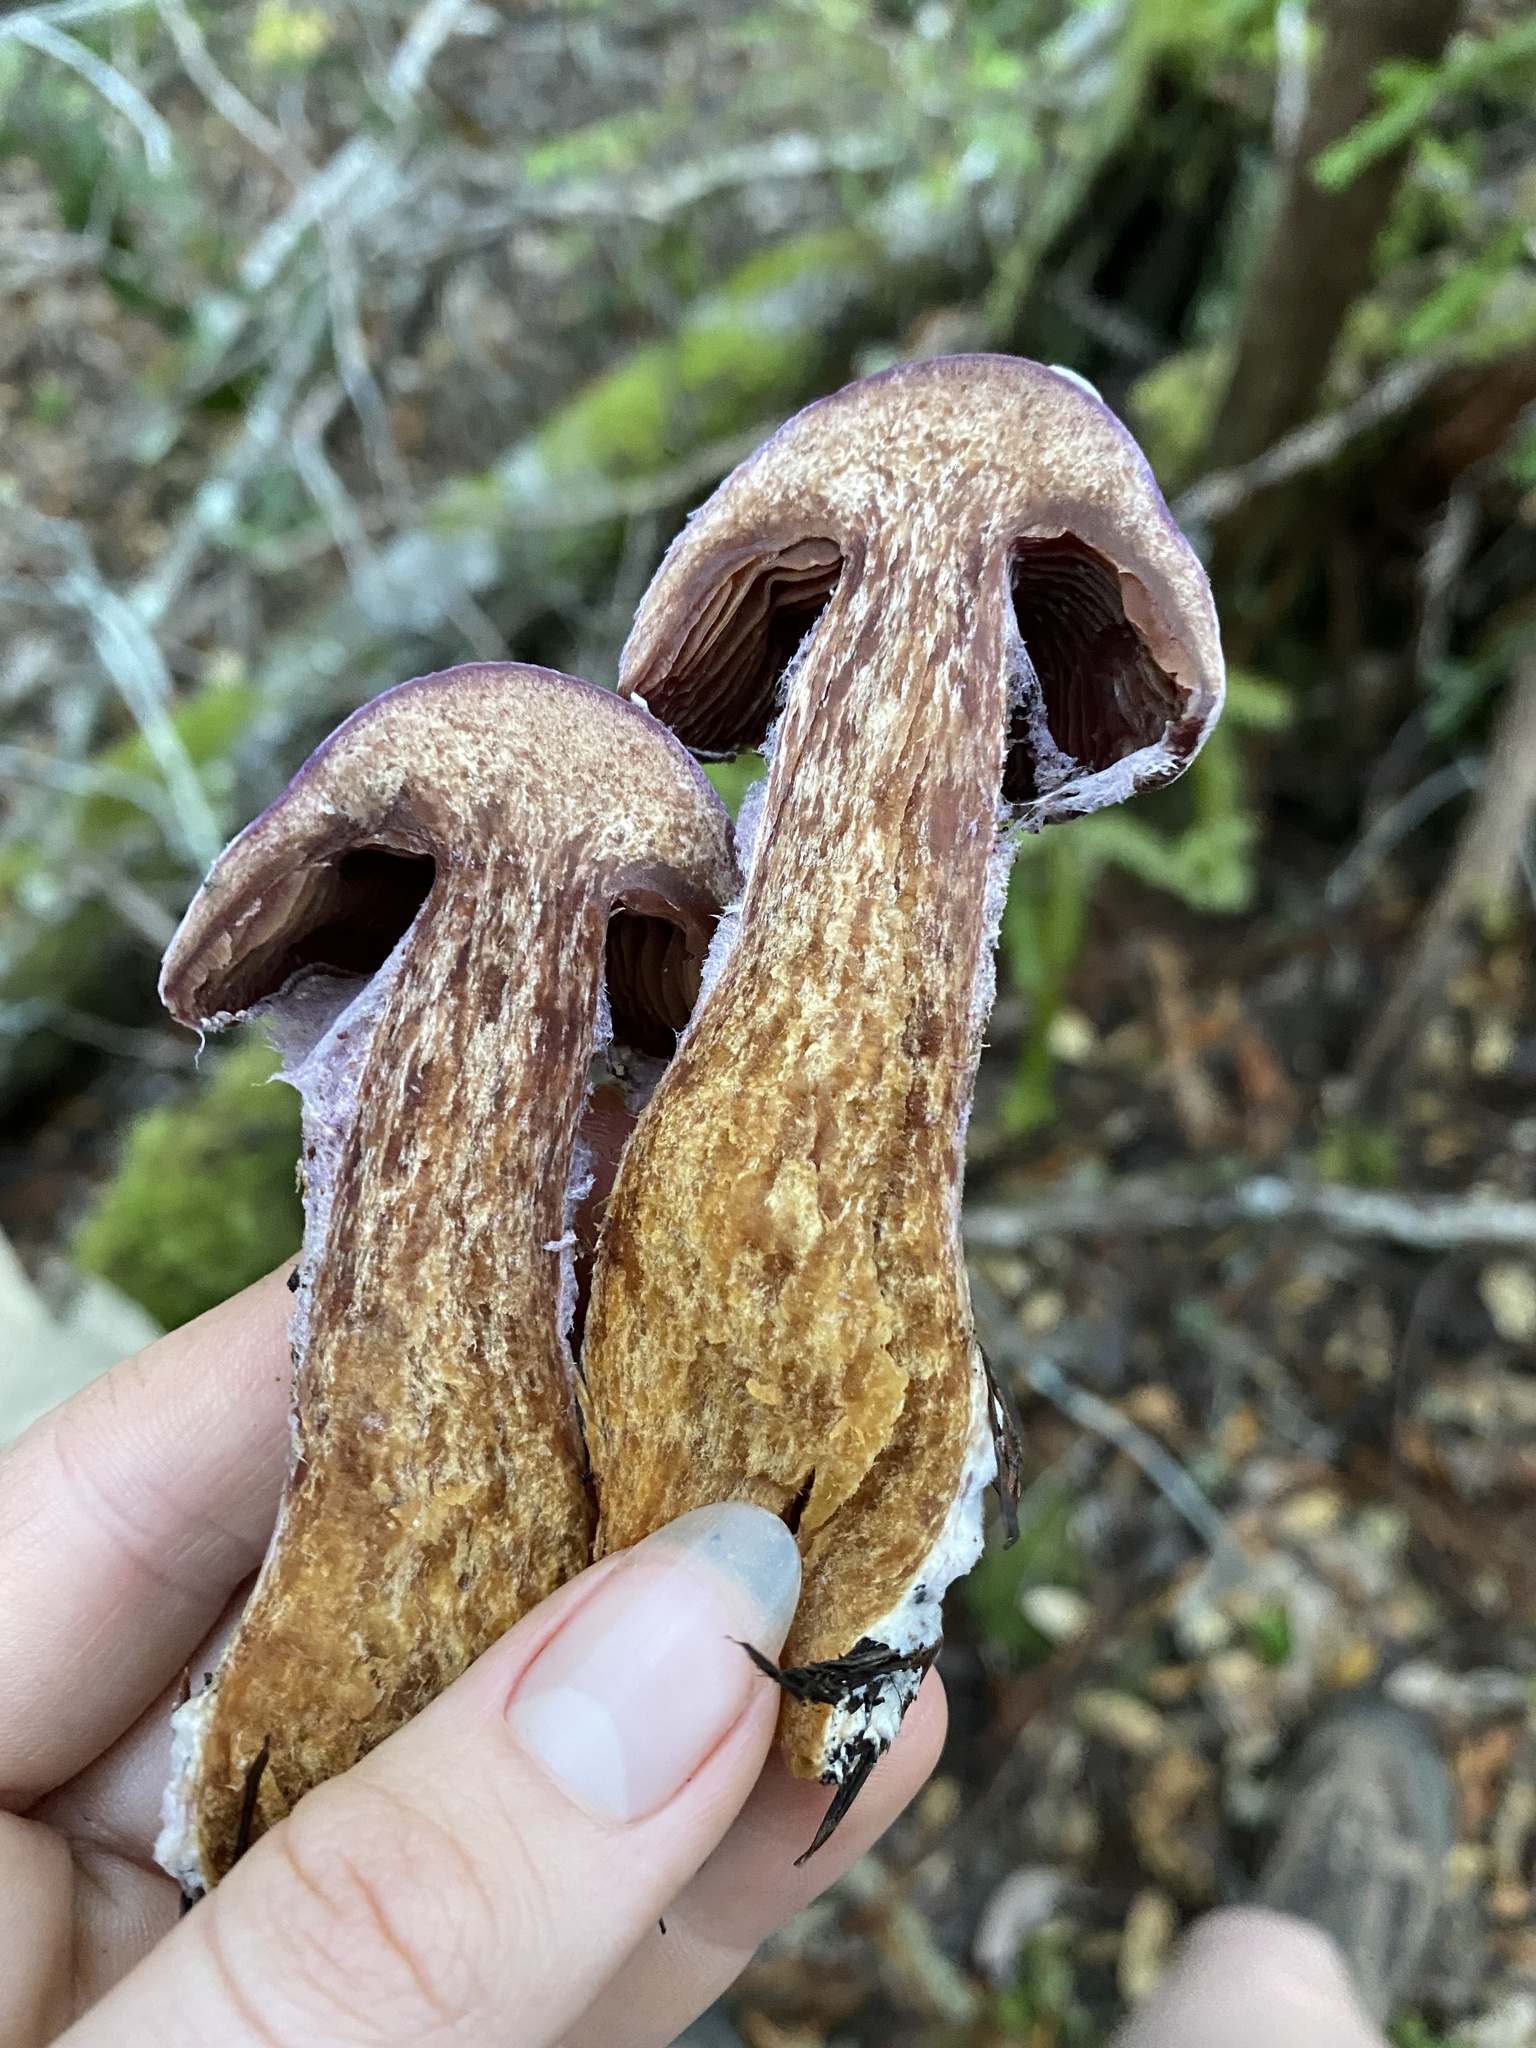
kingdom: Fungi
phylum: Basidiomycota
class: Agaricomycetes
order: Agaricales
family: Cortinariaceae
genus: Cortinarius
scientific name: Cortinarius traganus
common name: Gassy webcap
